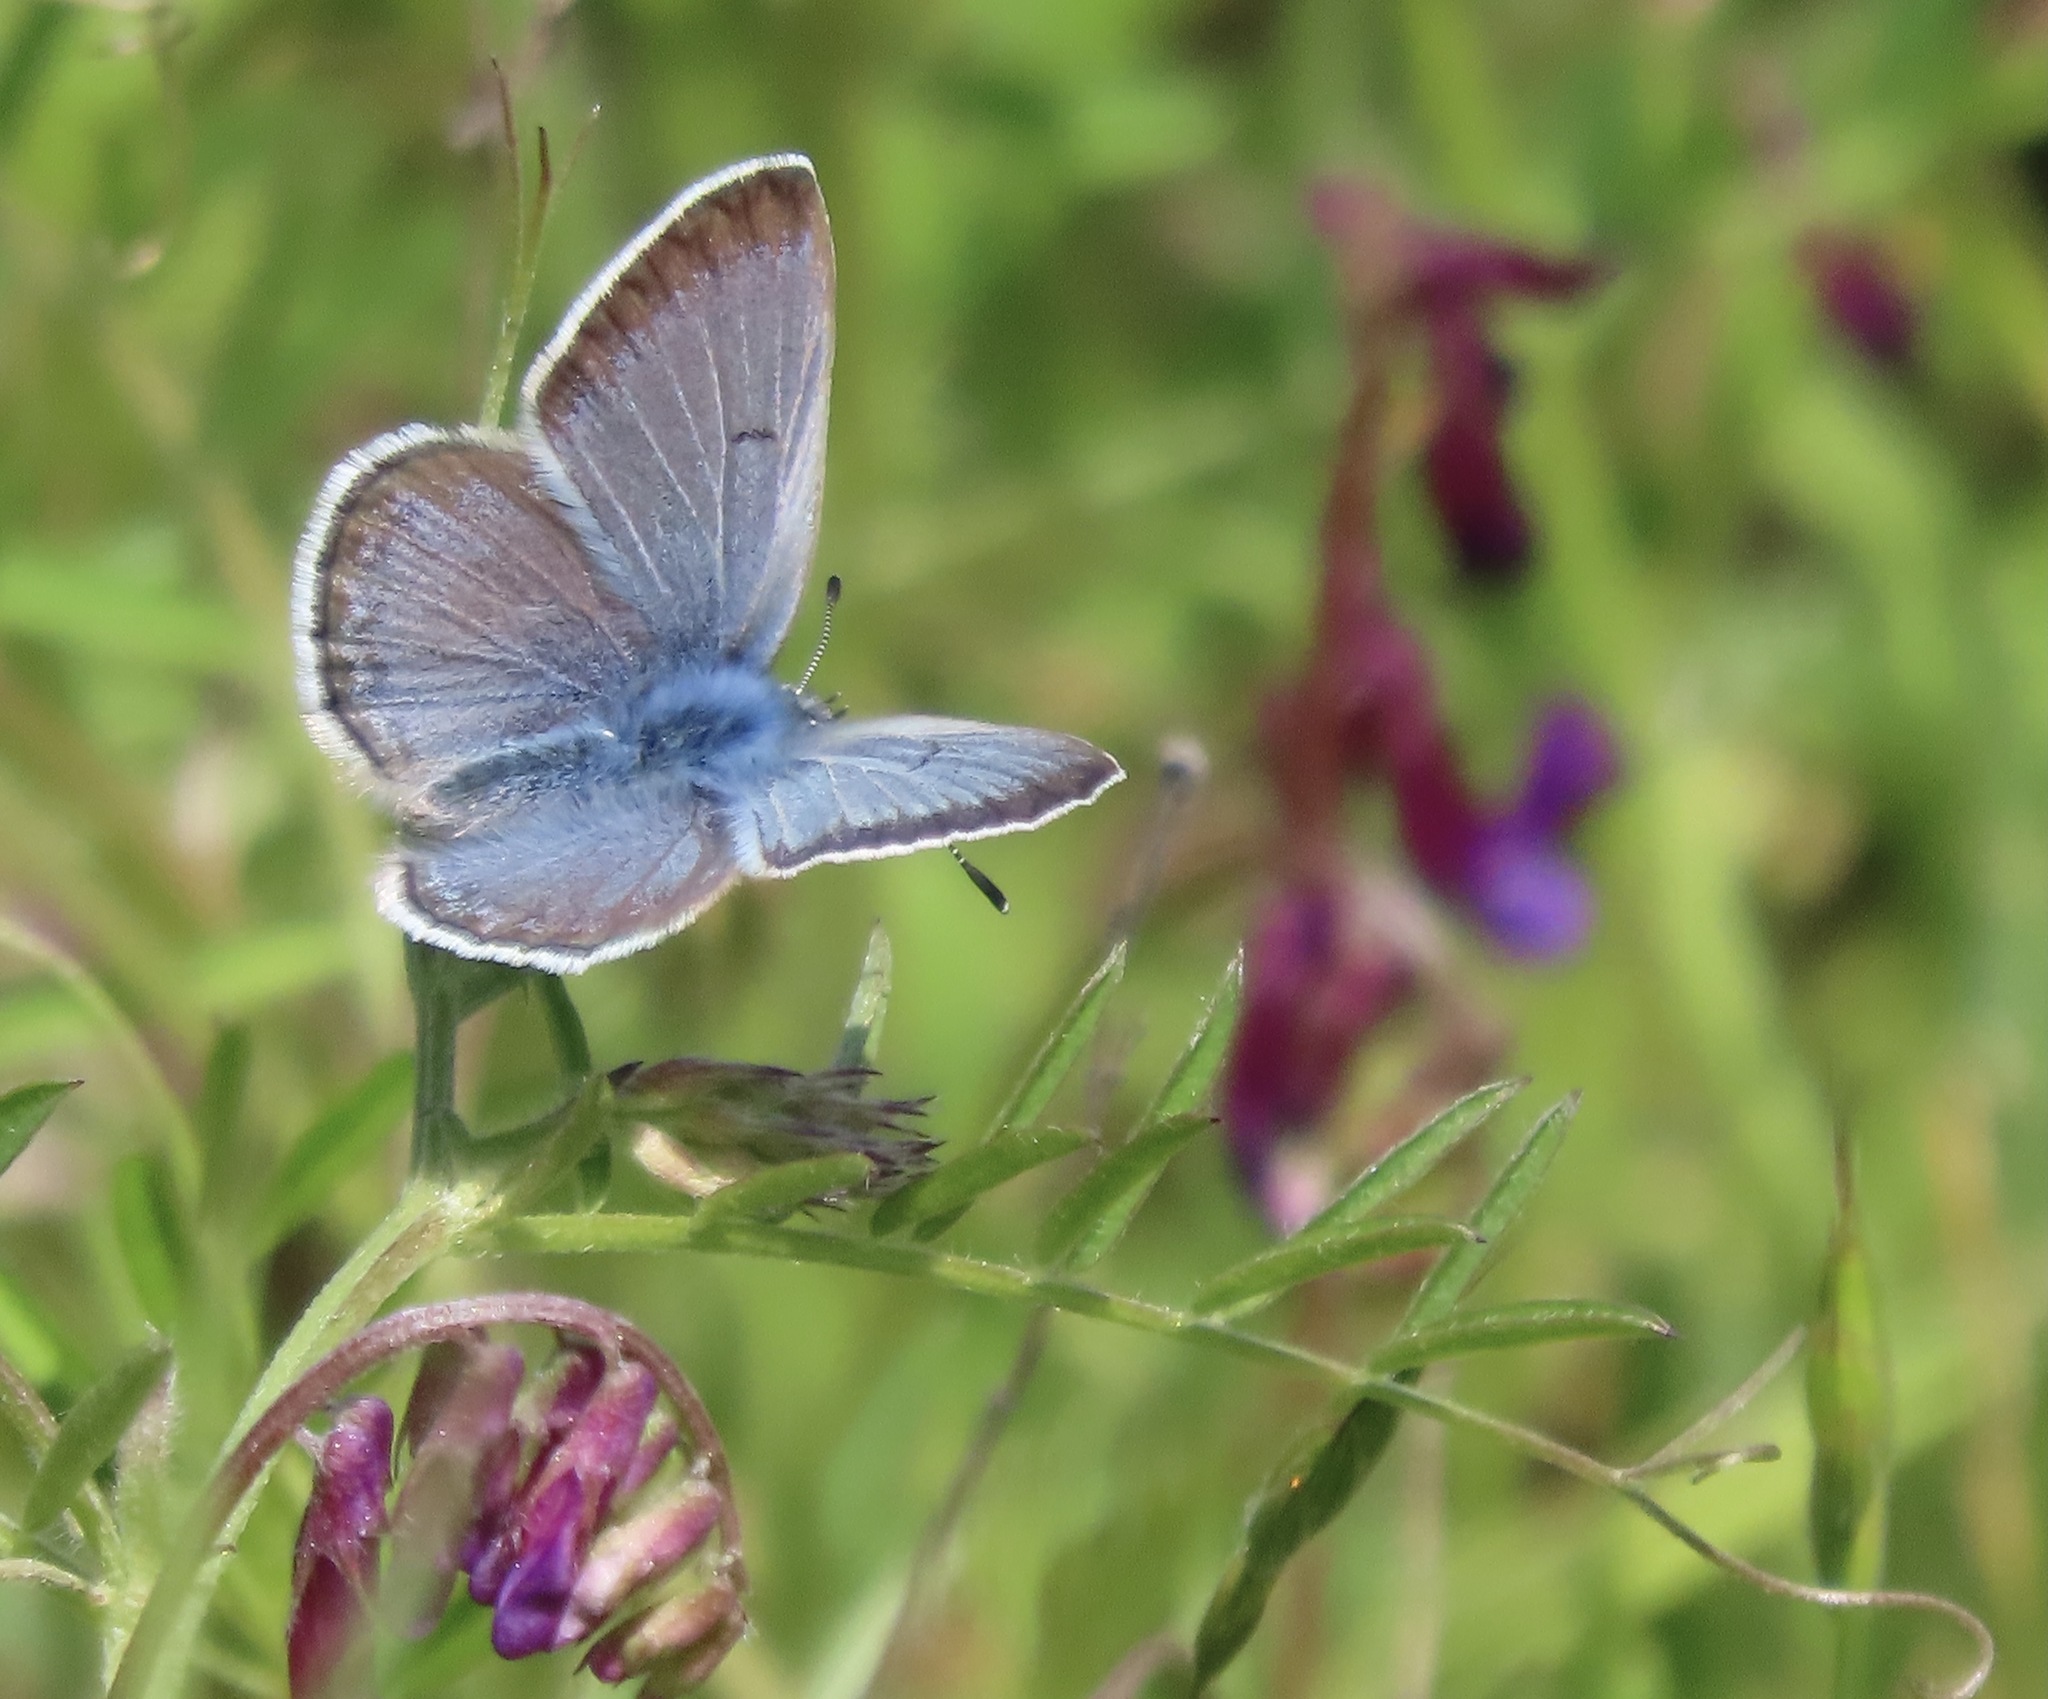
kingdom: Animalia
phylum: Arthropoda
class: Insecta
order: Lepidoptera
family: Lycaenidae
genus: Icaricia
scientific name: Icaricia icarioides
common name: Boisduval's blue
